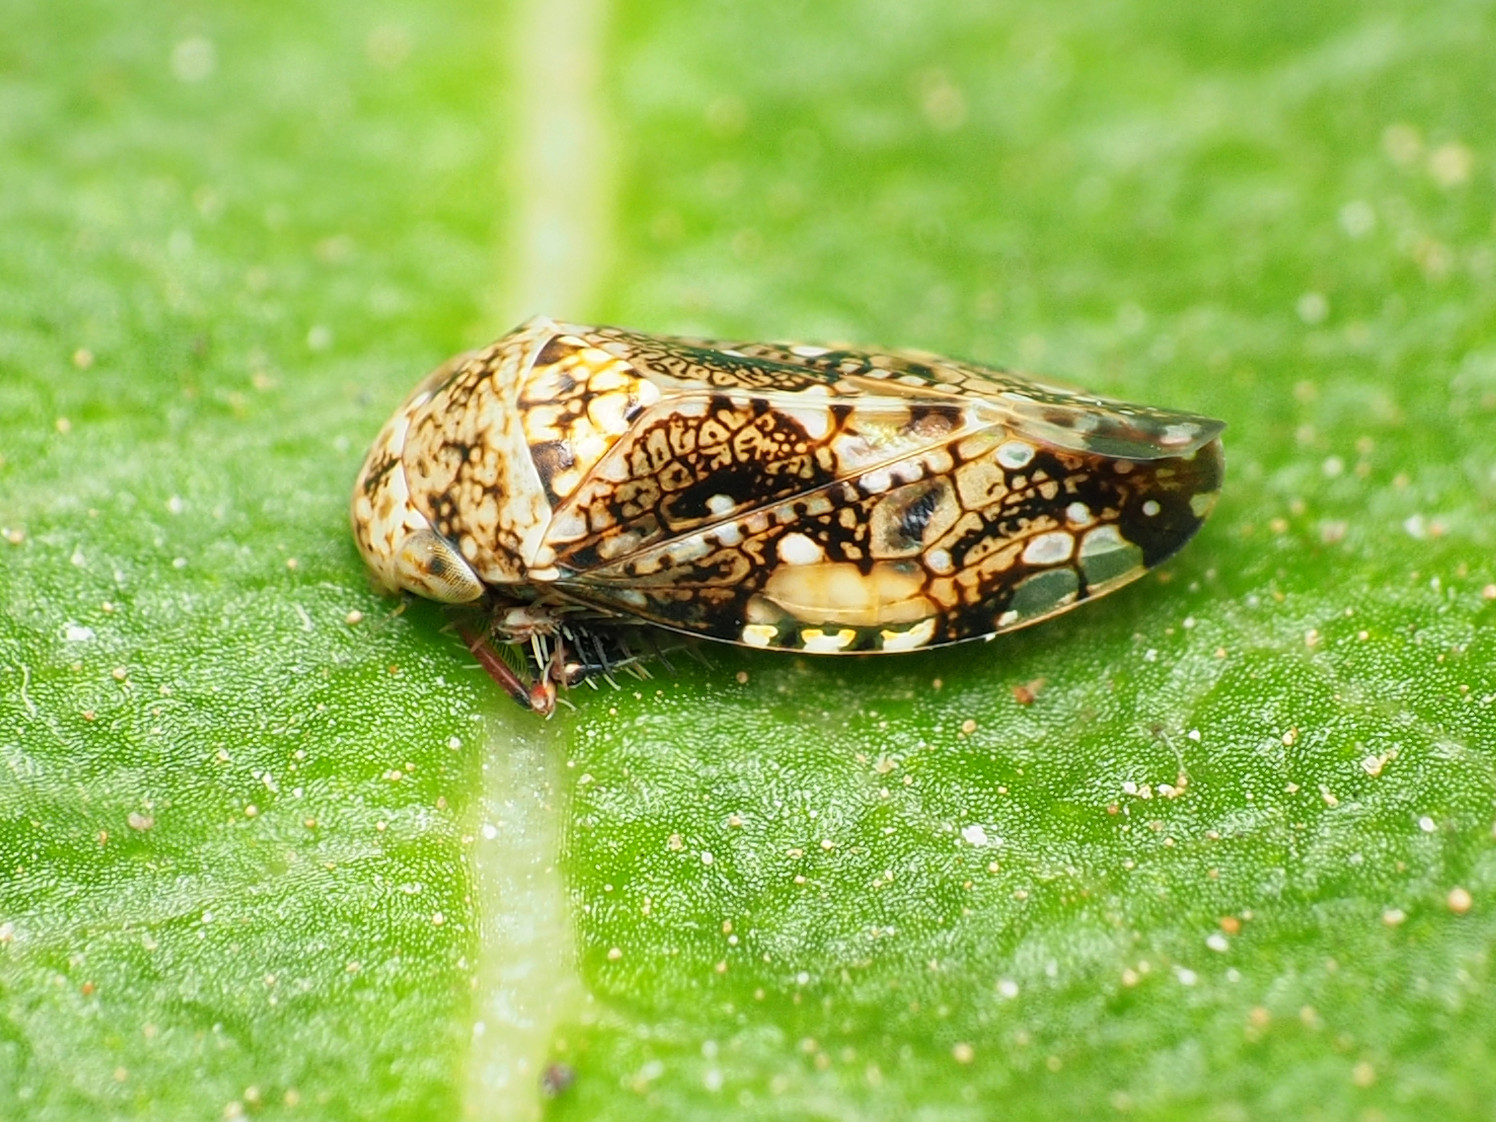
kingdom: Animalia
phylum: Arthropoda
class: Insecta
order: Hemiptera
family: Cicadellidae
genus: Penthimiola
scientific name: Penthimiola bella
